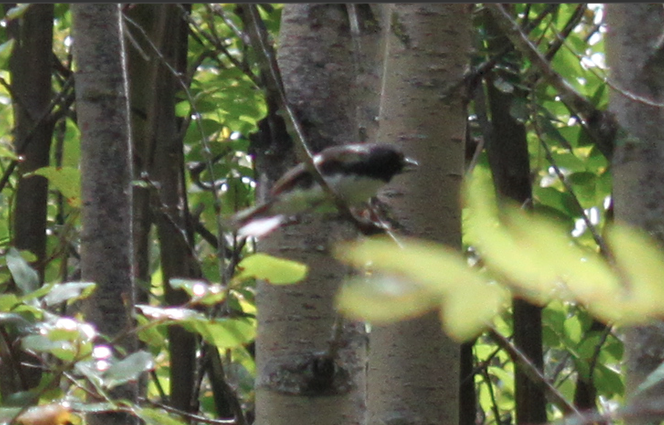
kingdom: Animalia
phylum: Chordata
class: Aves
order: Passeriformes
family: Parulidae
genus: Setophaga
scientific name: Setophaga caerulescens
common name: Black-throated blue warbler
